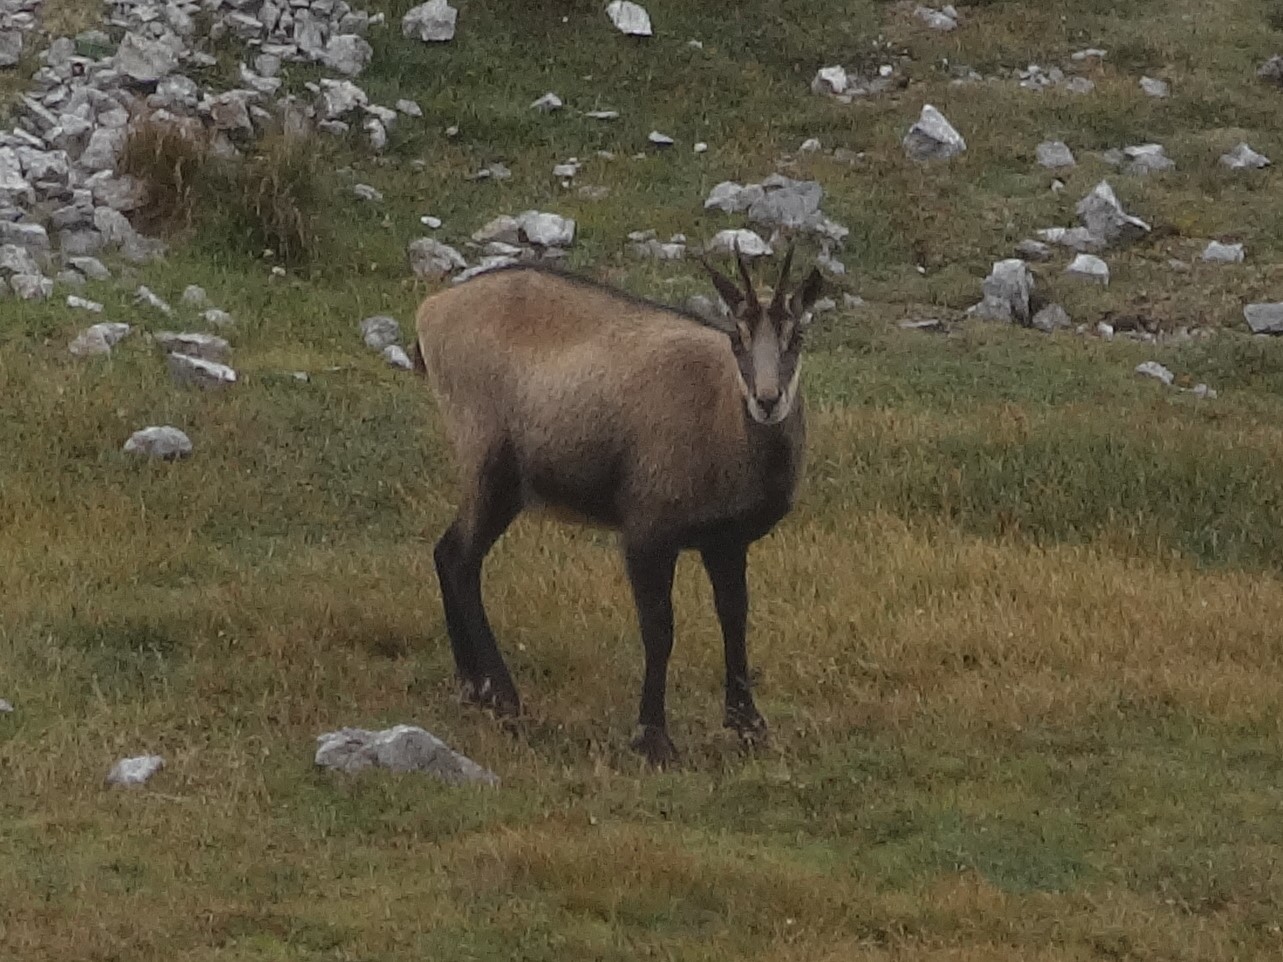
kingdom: Animalia
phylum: Chordata
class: Mammalia
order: Artiodactyla
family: Bovidae
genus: Rupicapra
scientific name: Rupicapra rupicapra
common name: Chamois
